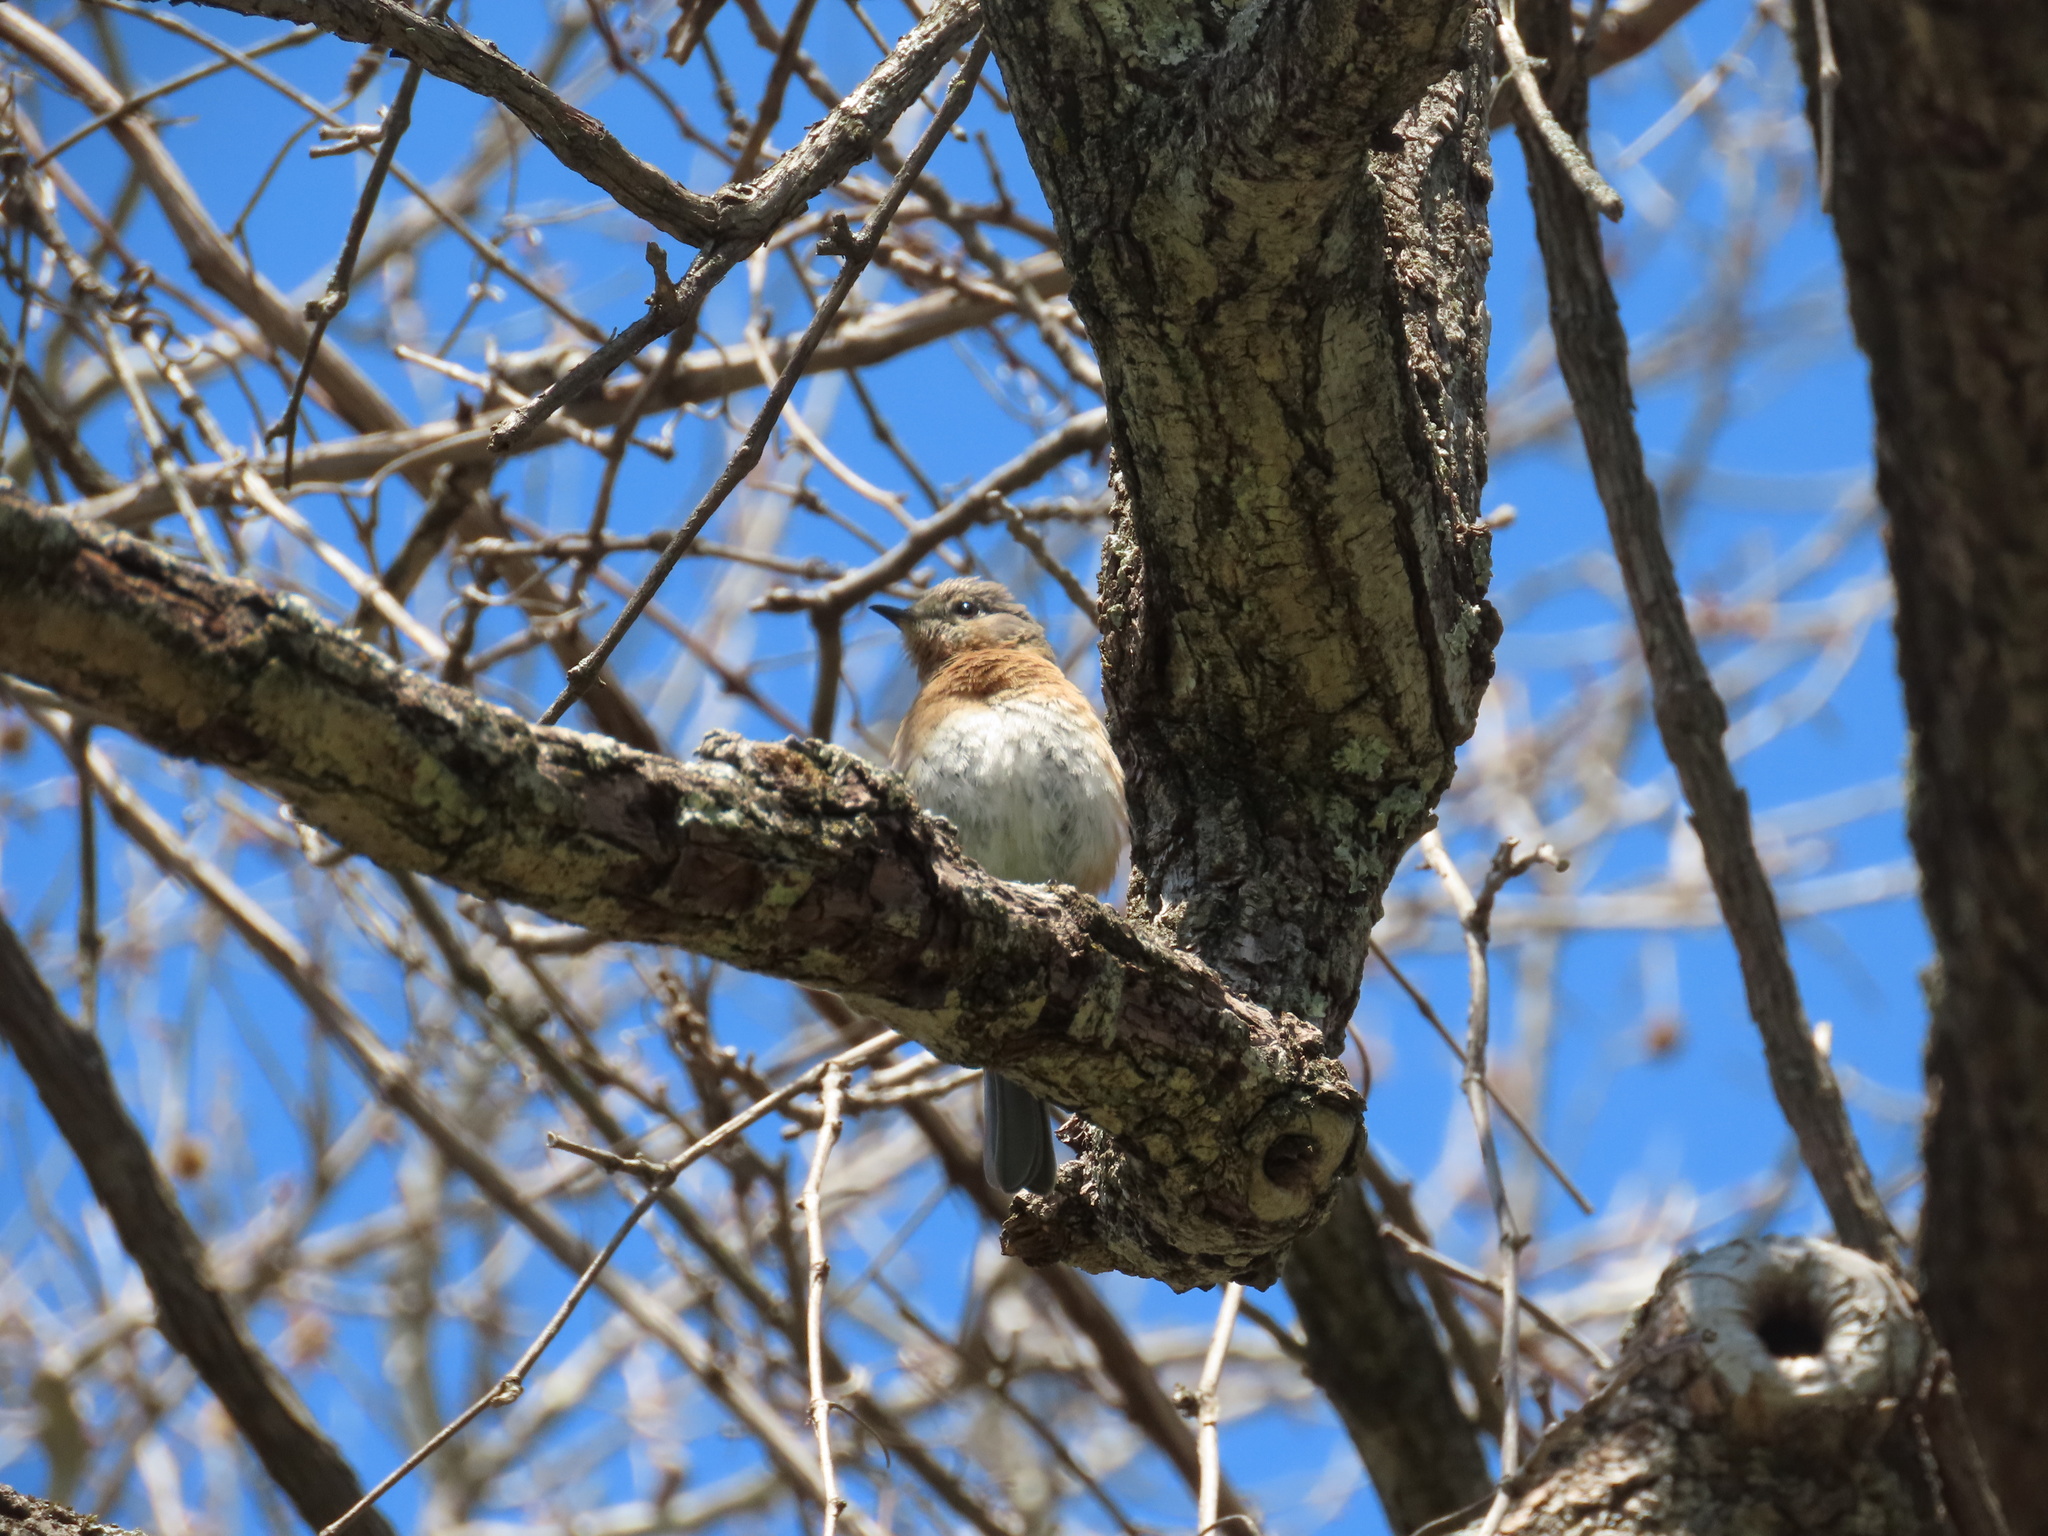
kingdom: Animalia
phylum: Chordata
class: Aves
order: Passeriformes
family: Turdidae
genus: Sialia
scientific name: Sialia sialis
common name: Eastern bluebird
